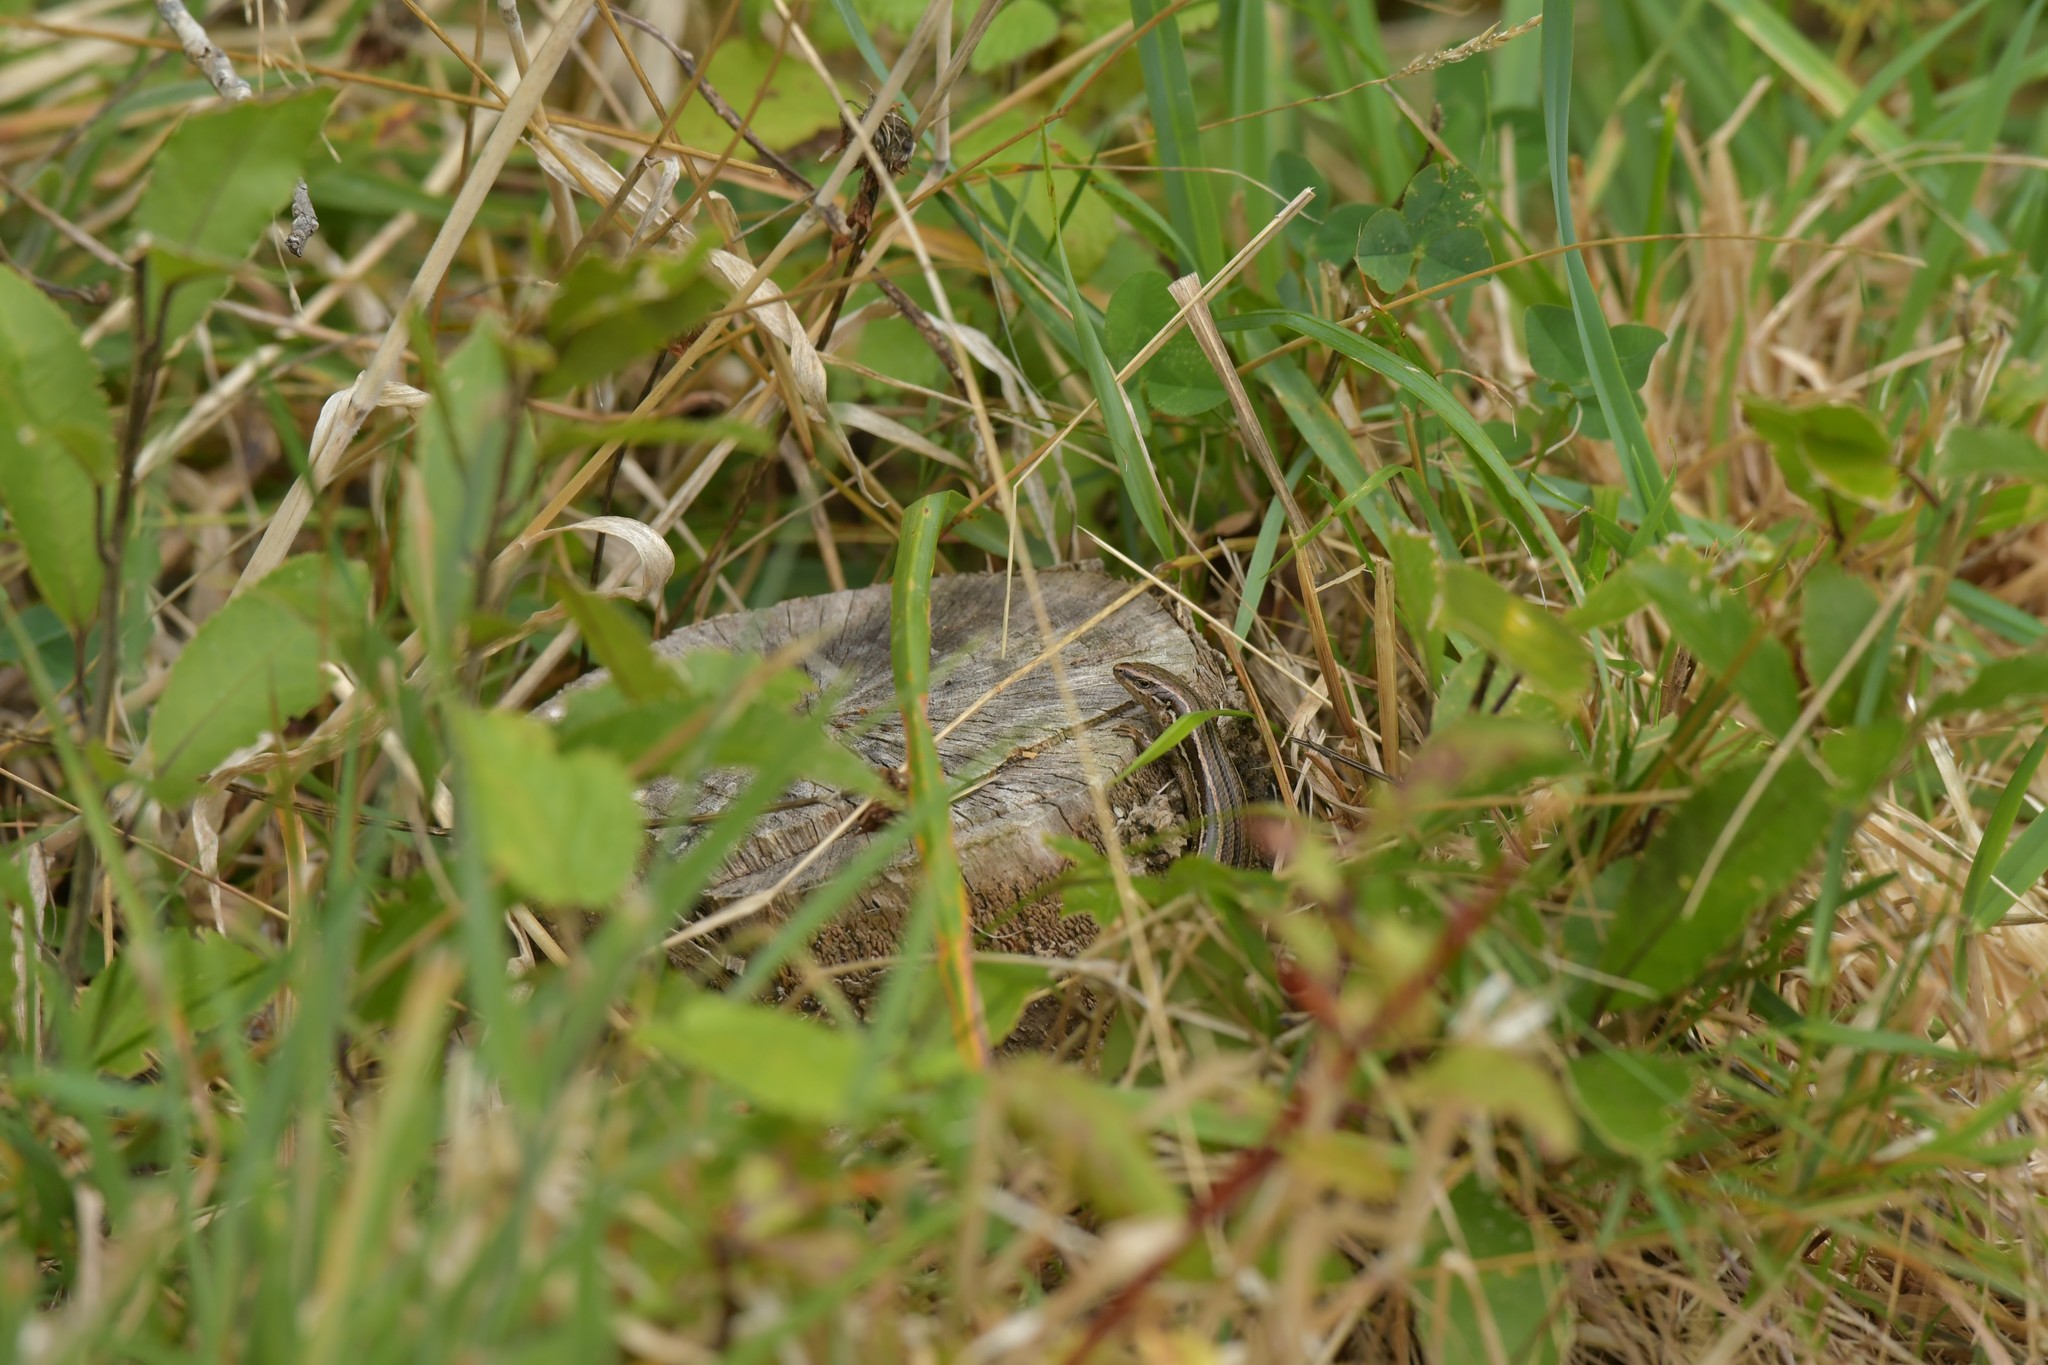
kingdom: Animalia
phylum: Chordata
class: Squamata
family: Scincidae
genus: Oligosoma
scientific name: Oligosoma polychroma
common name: Common new zealand skink
